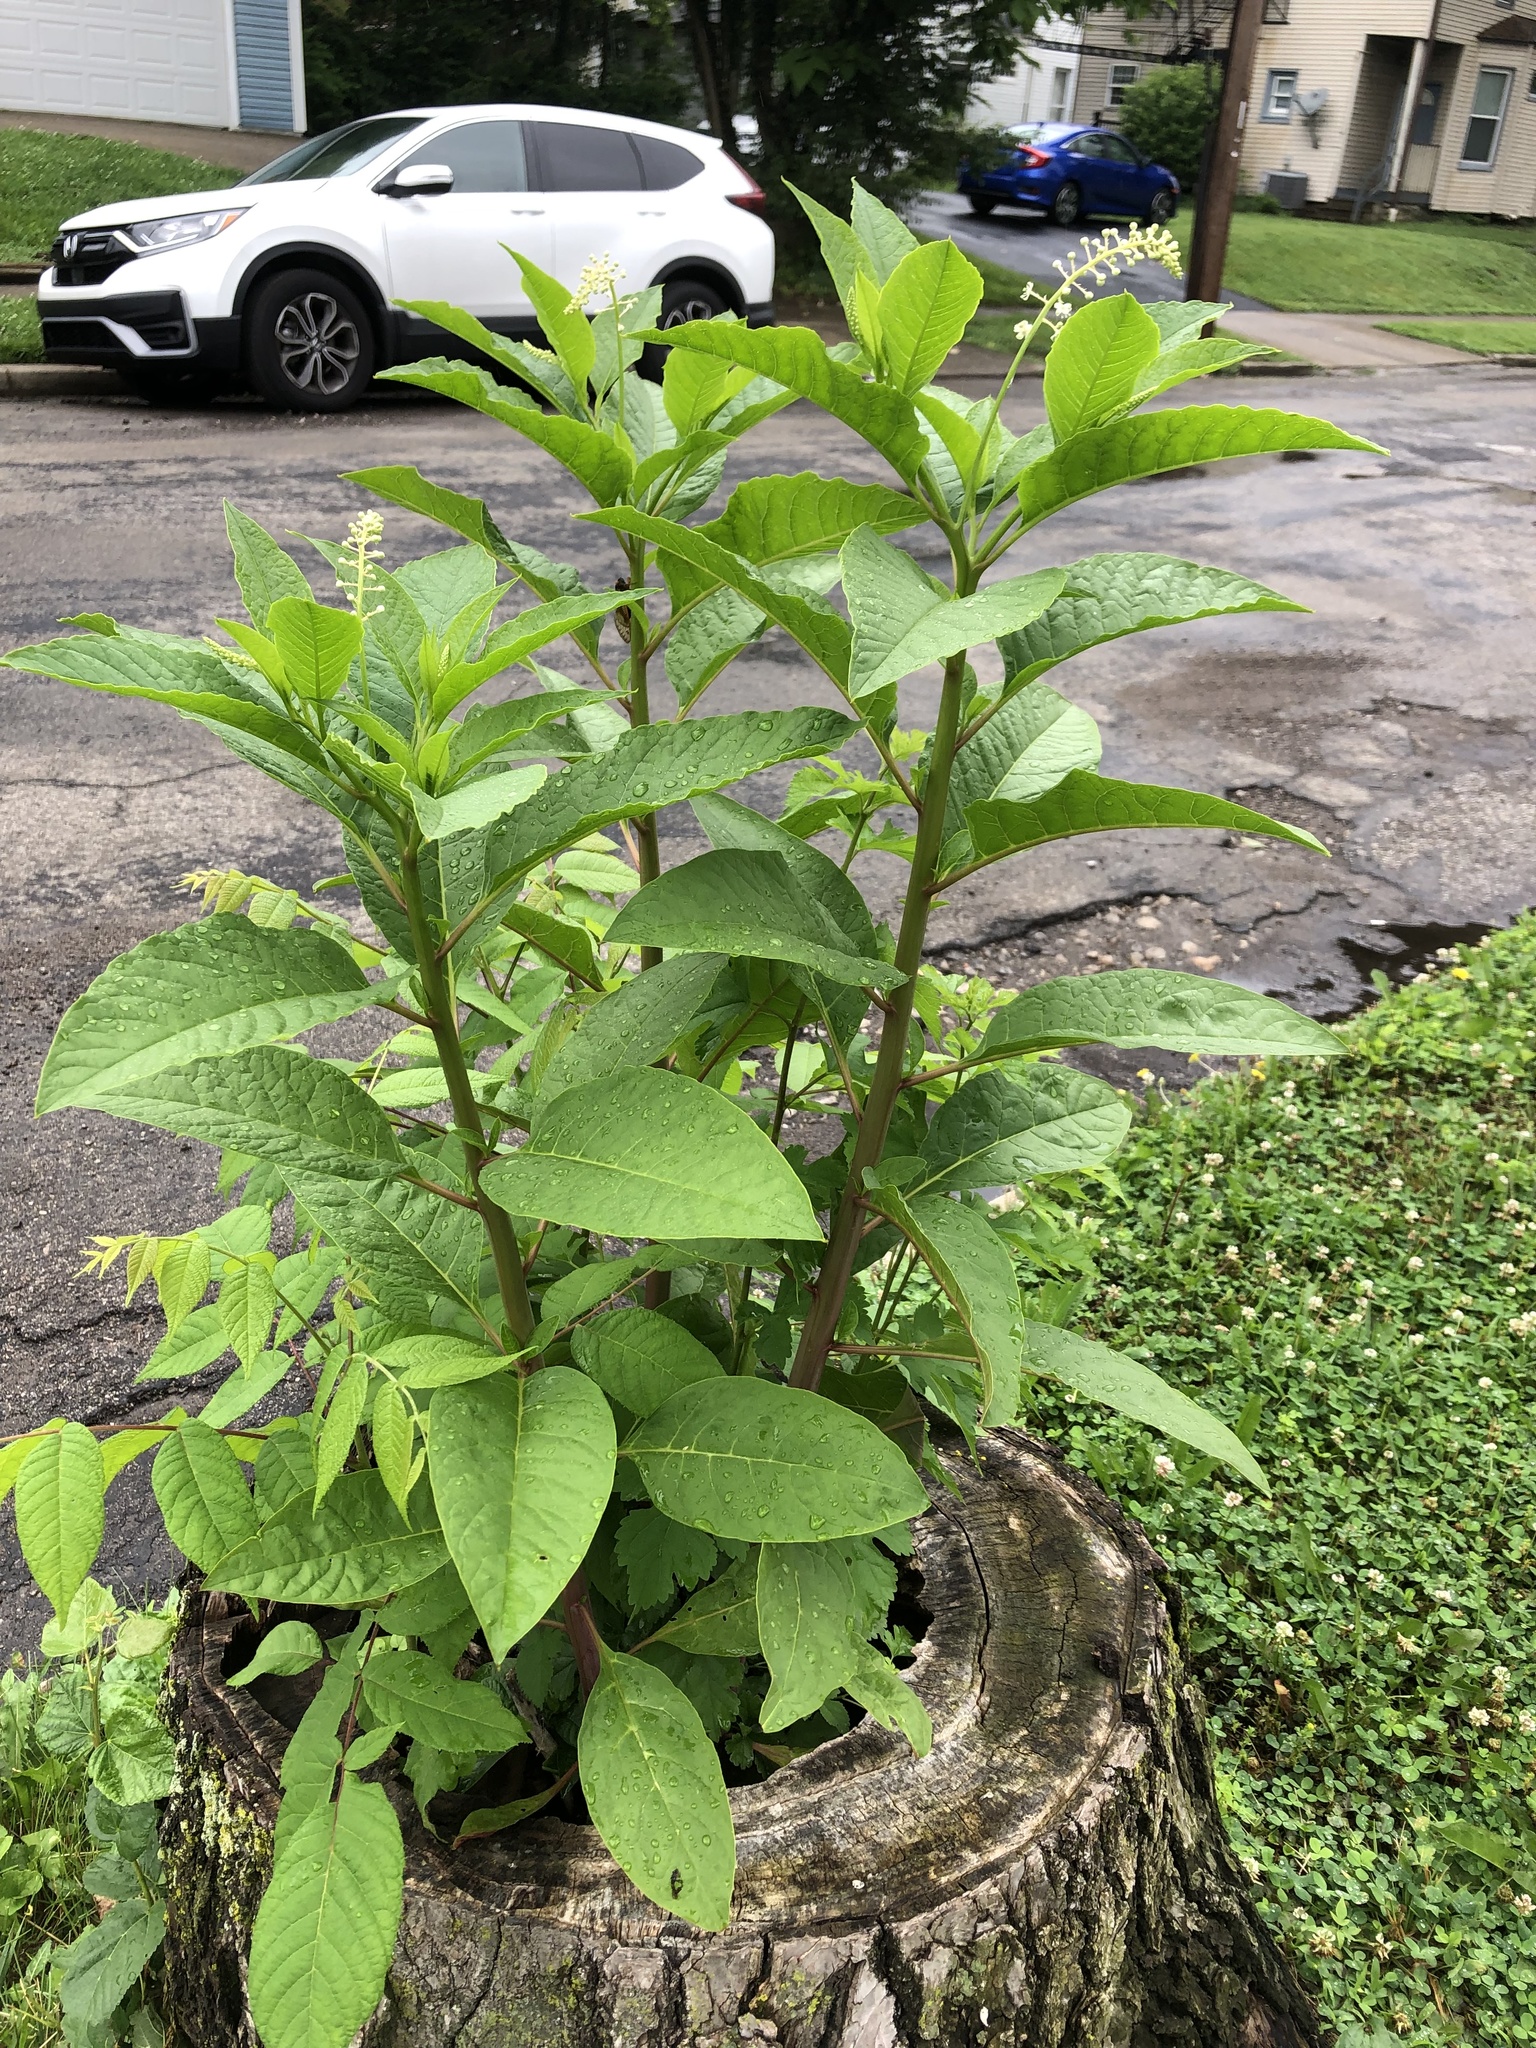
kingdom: Plantae
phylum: Tracheophyta
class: Magnoliopsida
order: Caryophyllales
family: Phytolaccaceae
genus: Phytolacca
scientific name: Phytolacca americana
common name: American pokeweed
